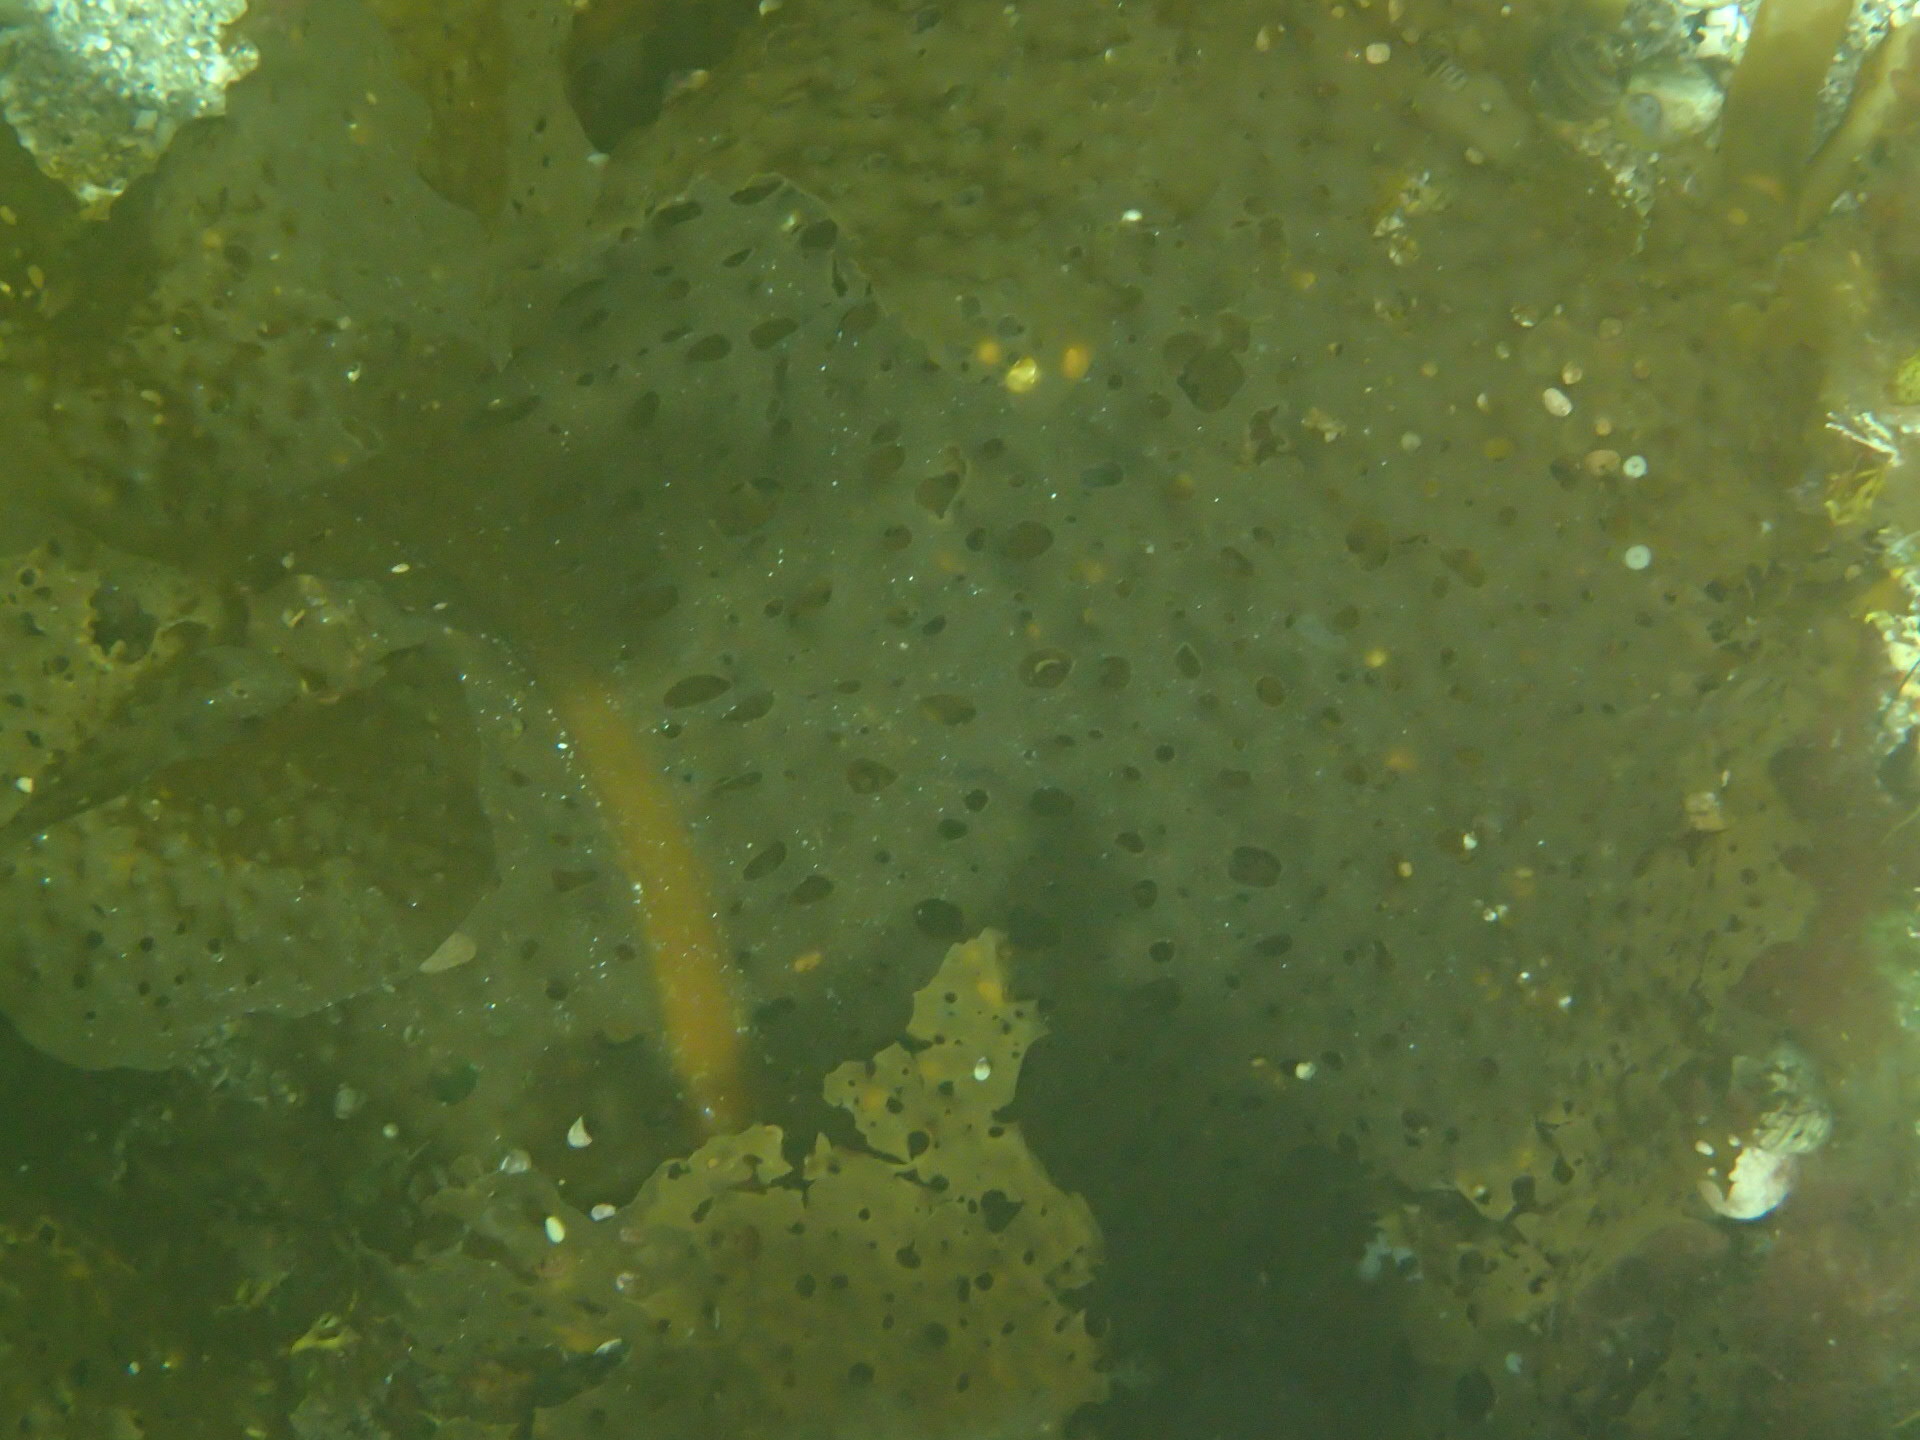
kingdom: Chromista
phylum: Ochrophyta
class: Phaeophyceae
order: Laminariales
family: Costariaceae
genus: Agarum
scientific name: Agarum clathratum
